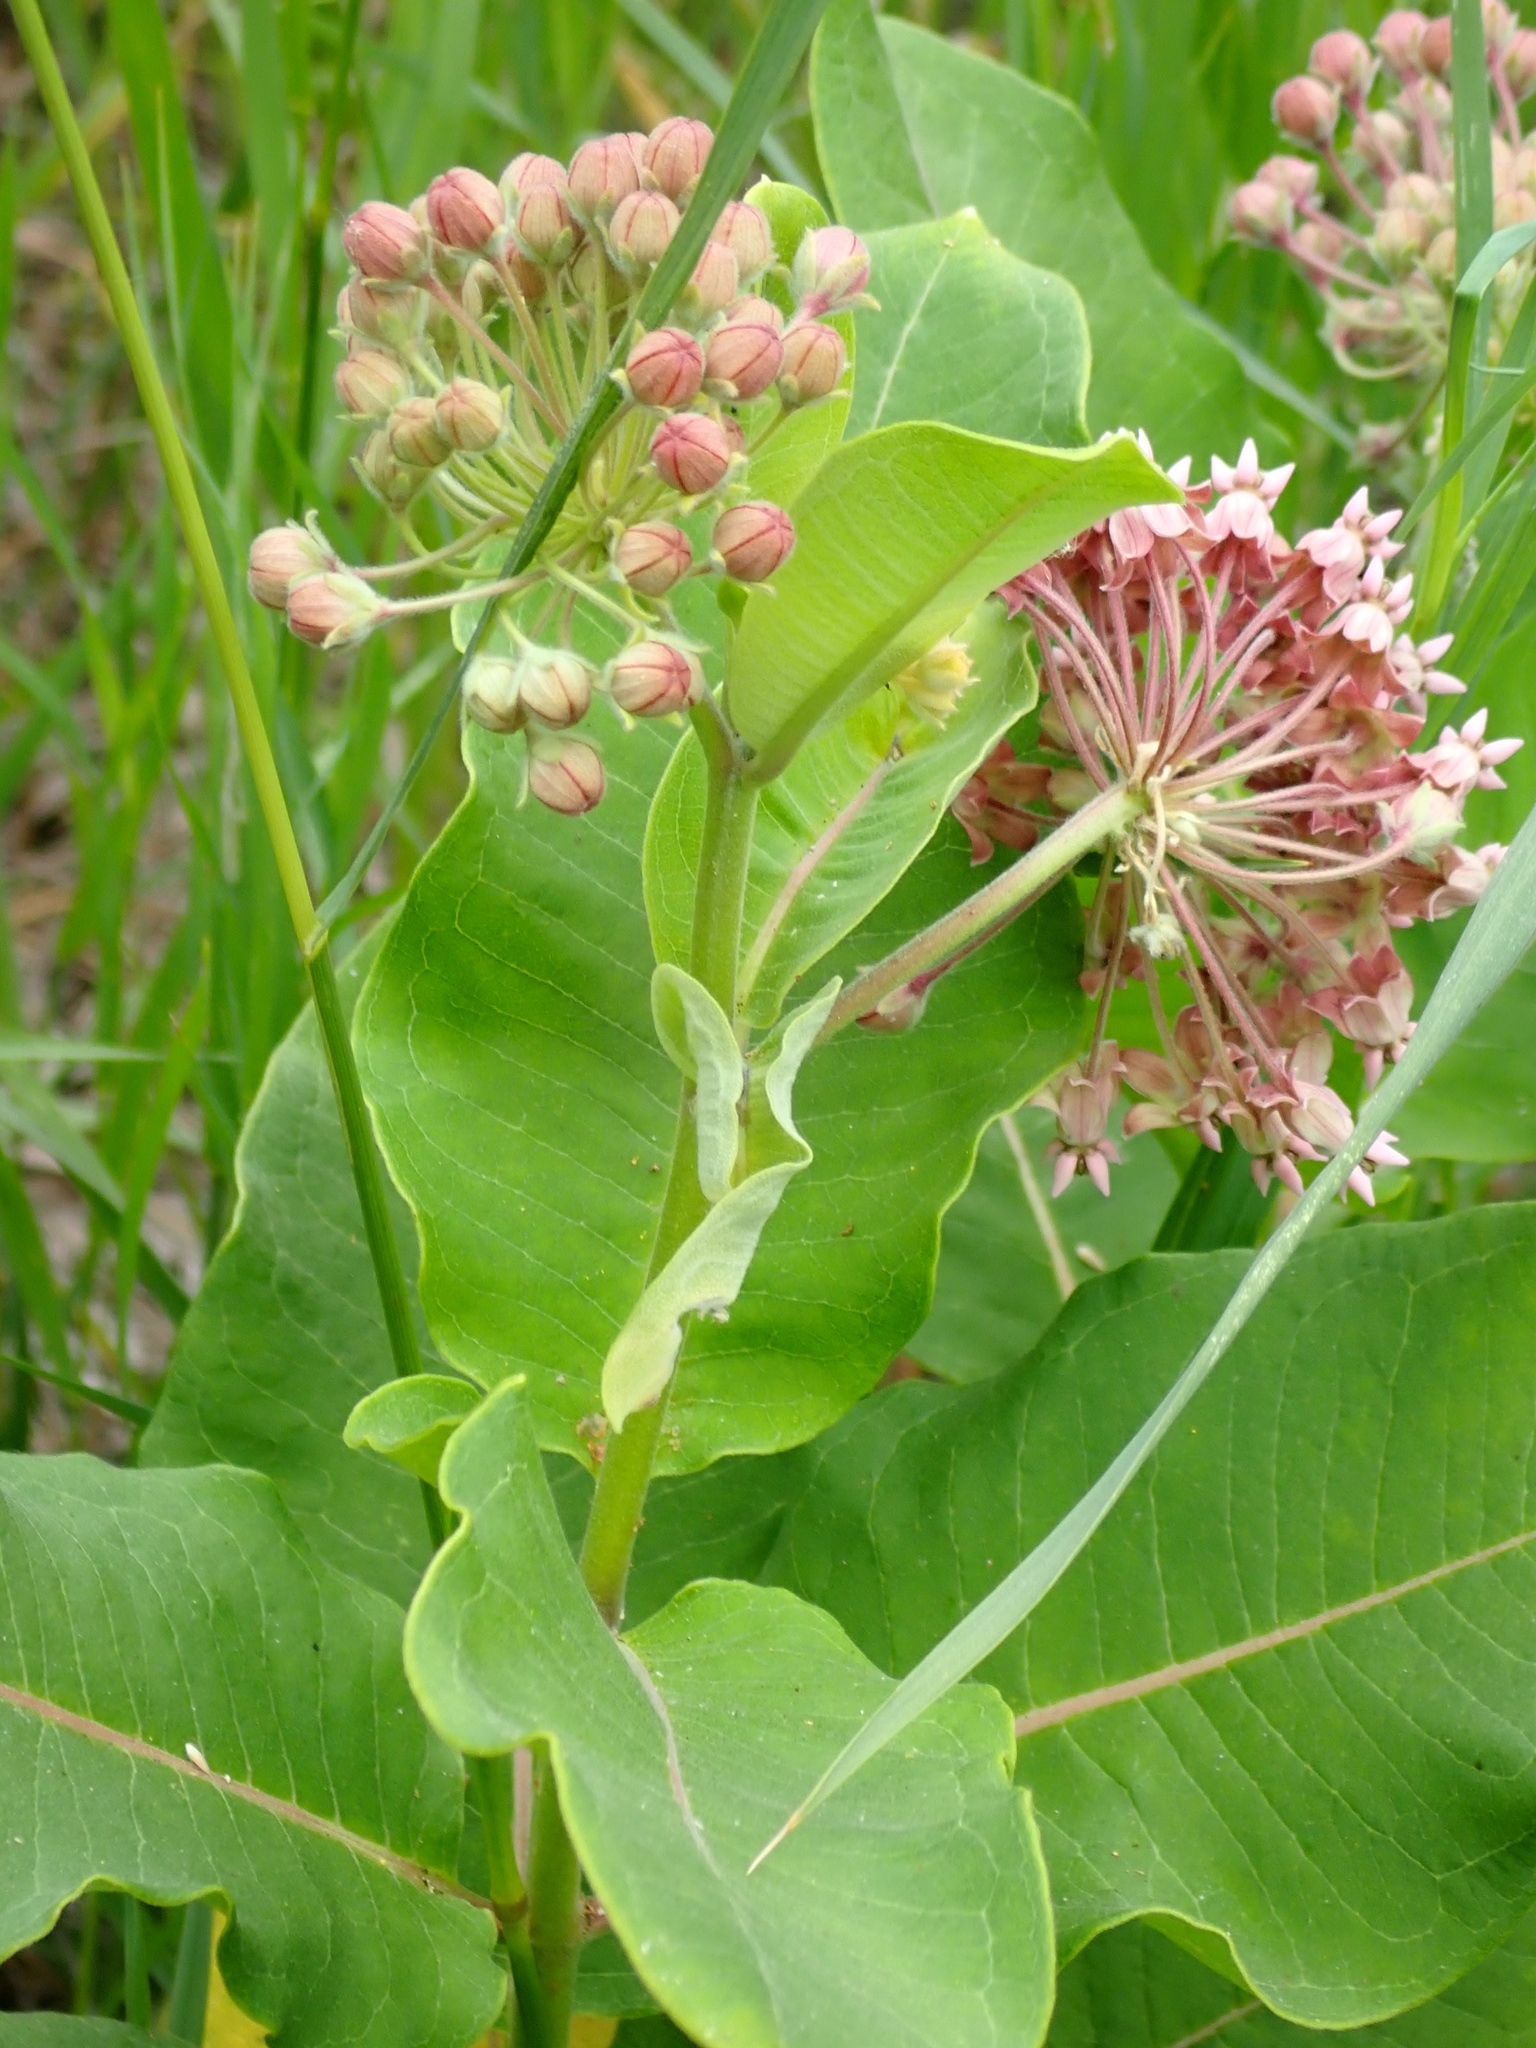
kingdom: Plantae
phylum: Tracheophyta
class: Magnoliopsida
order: Gentianales
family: Apocynaceae
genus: Asclepias
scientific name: Asclepias syriaca
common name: Common milkweed
